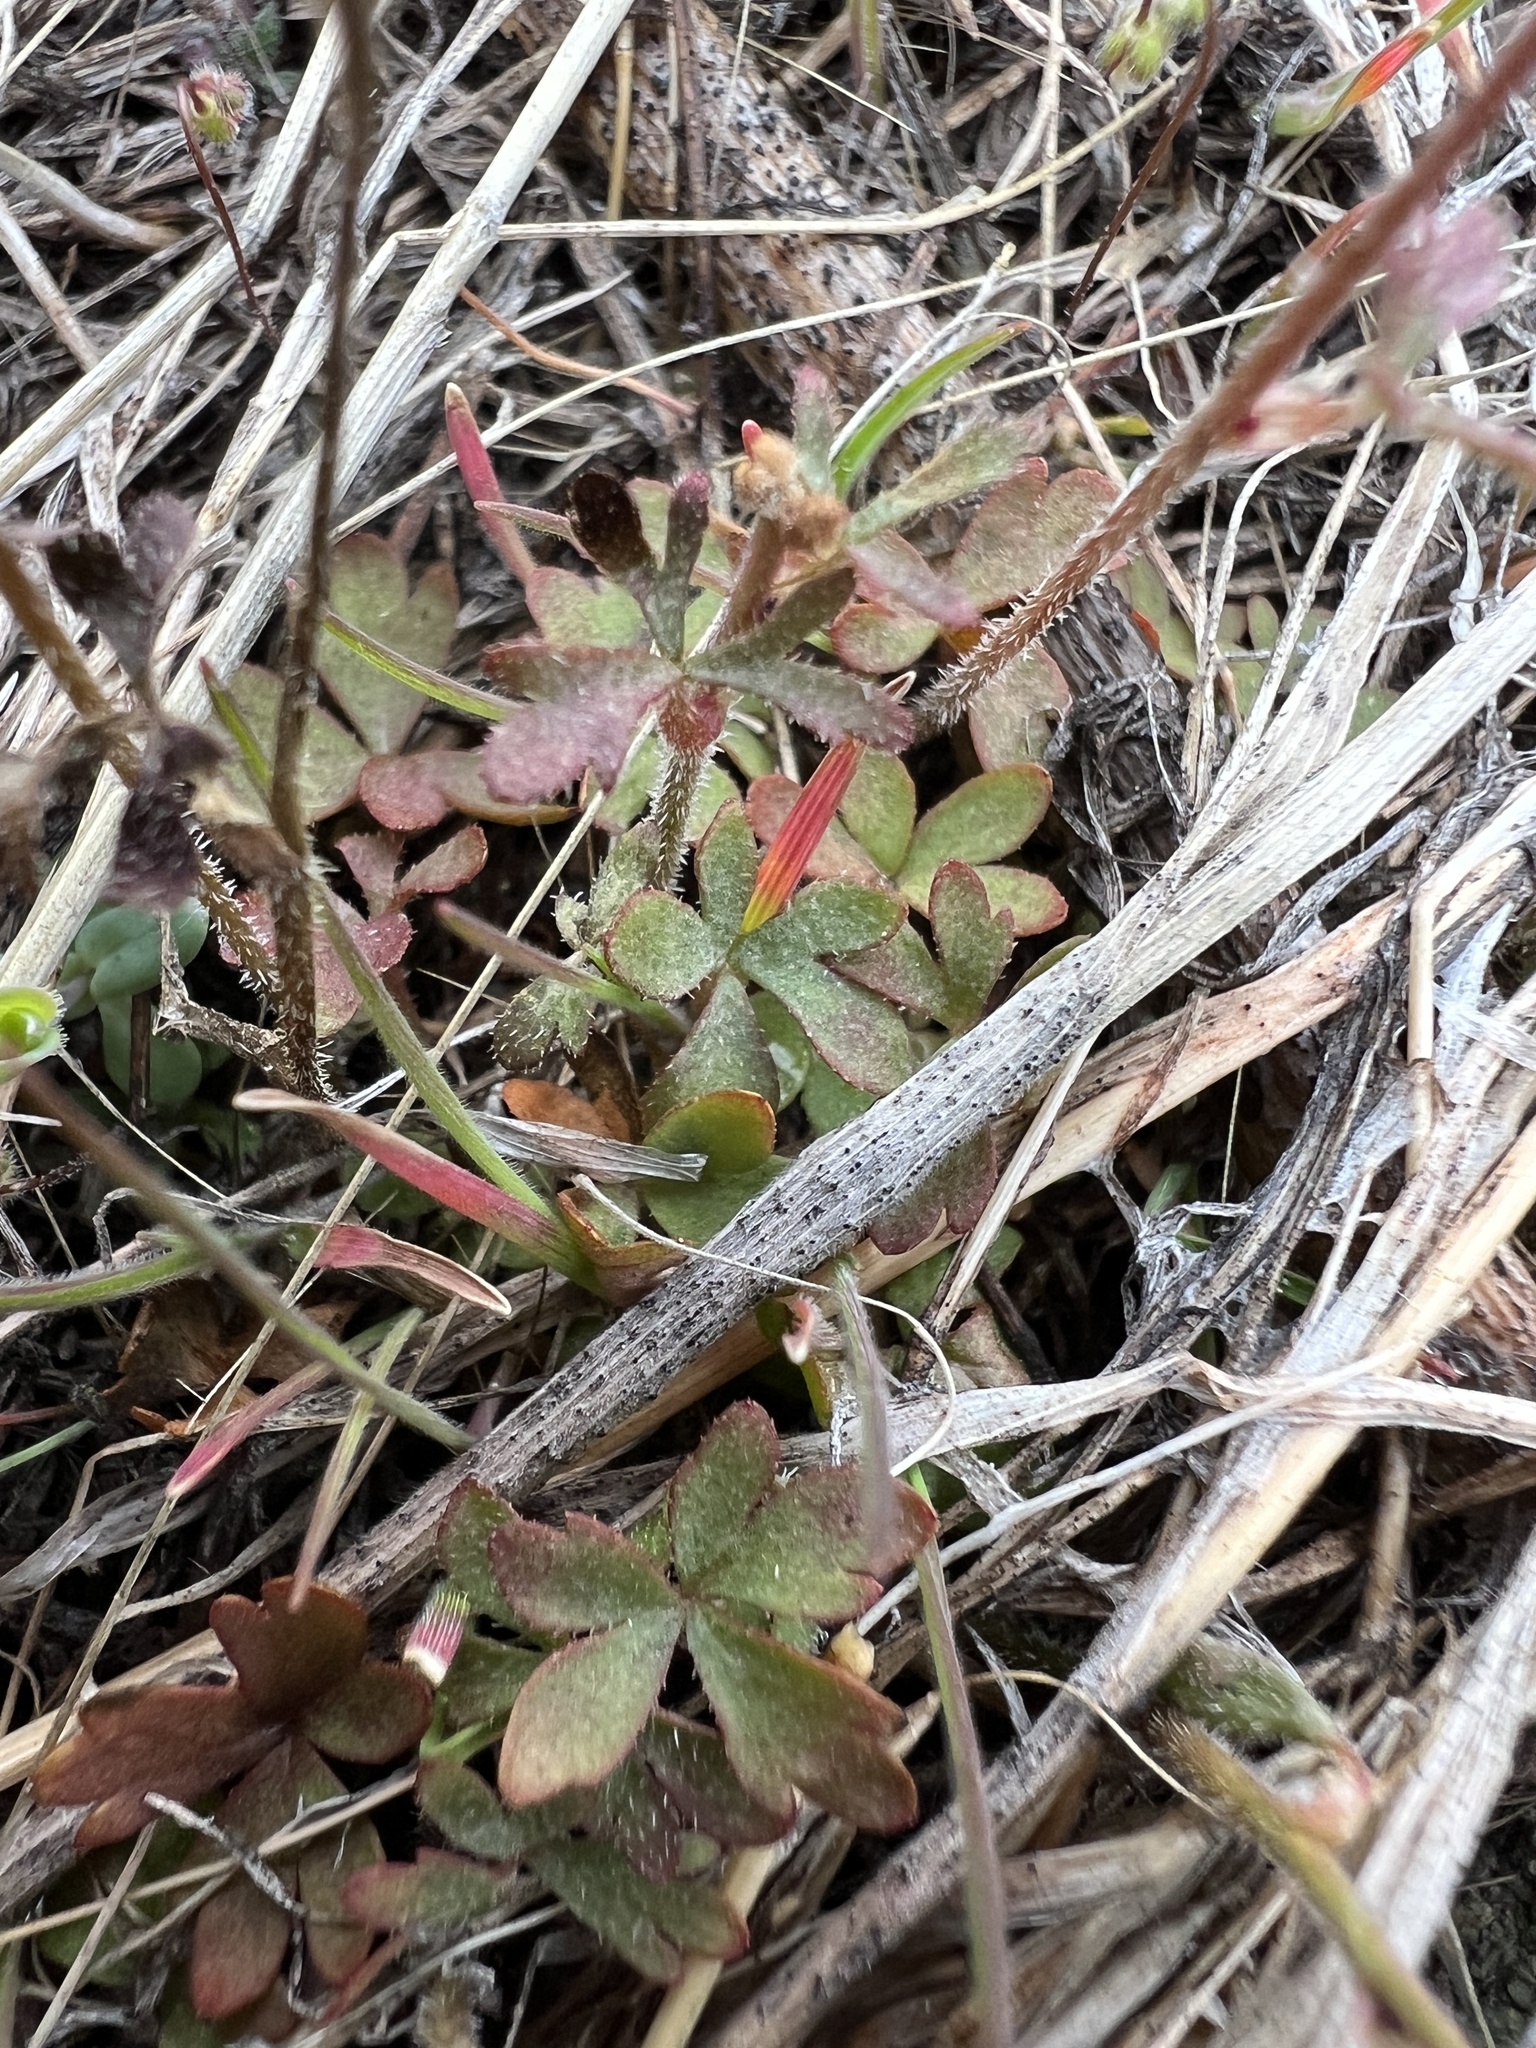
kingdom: Plantae
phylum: Tracheophyta
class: Magnoliopsida
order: Saxifragales
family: Saxifragaceae
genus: Lithophragma
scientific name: Lithophragma glabrum
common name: Bulbous prairie-star
